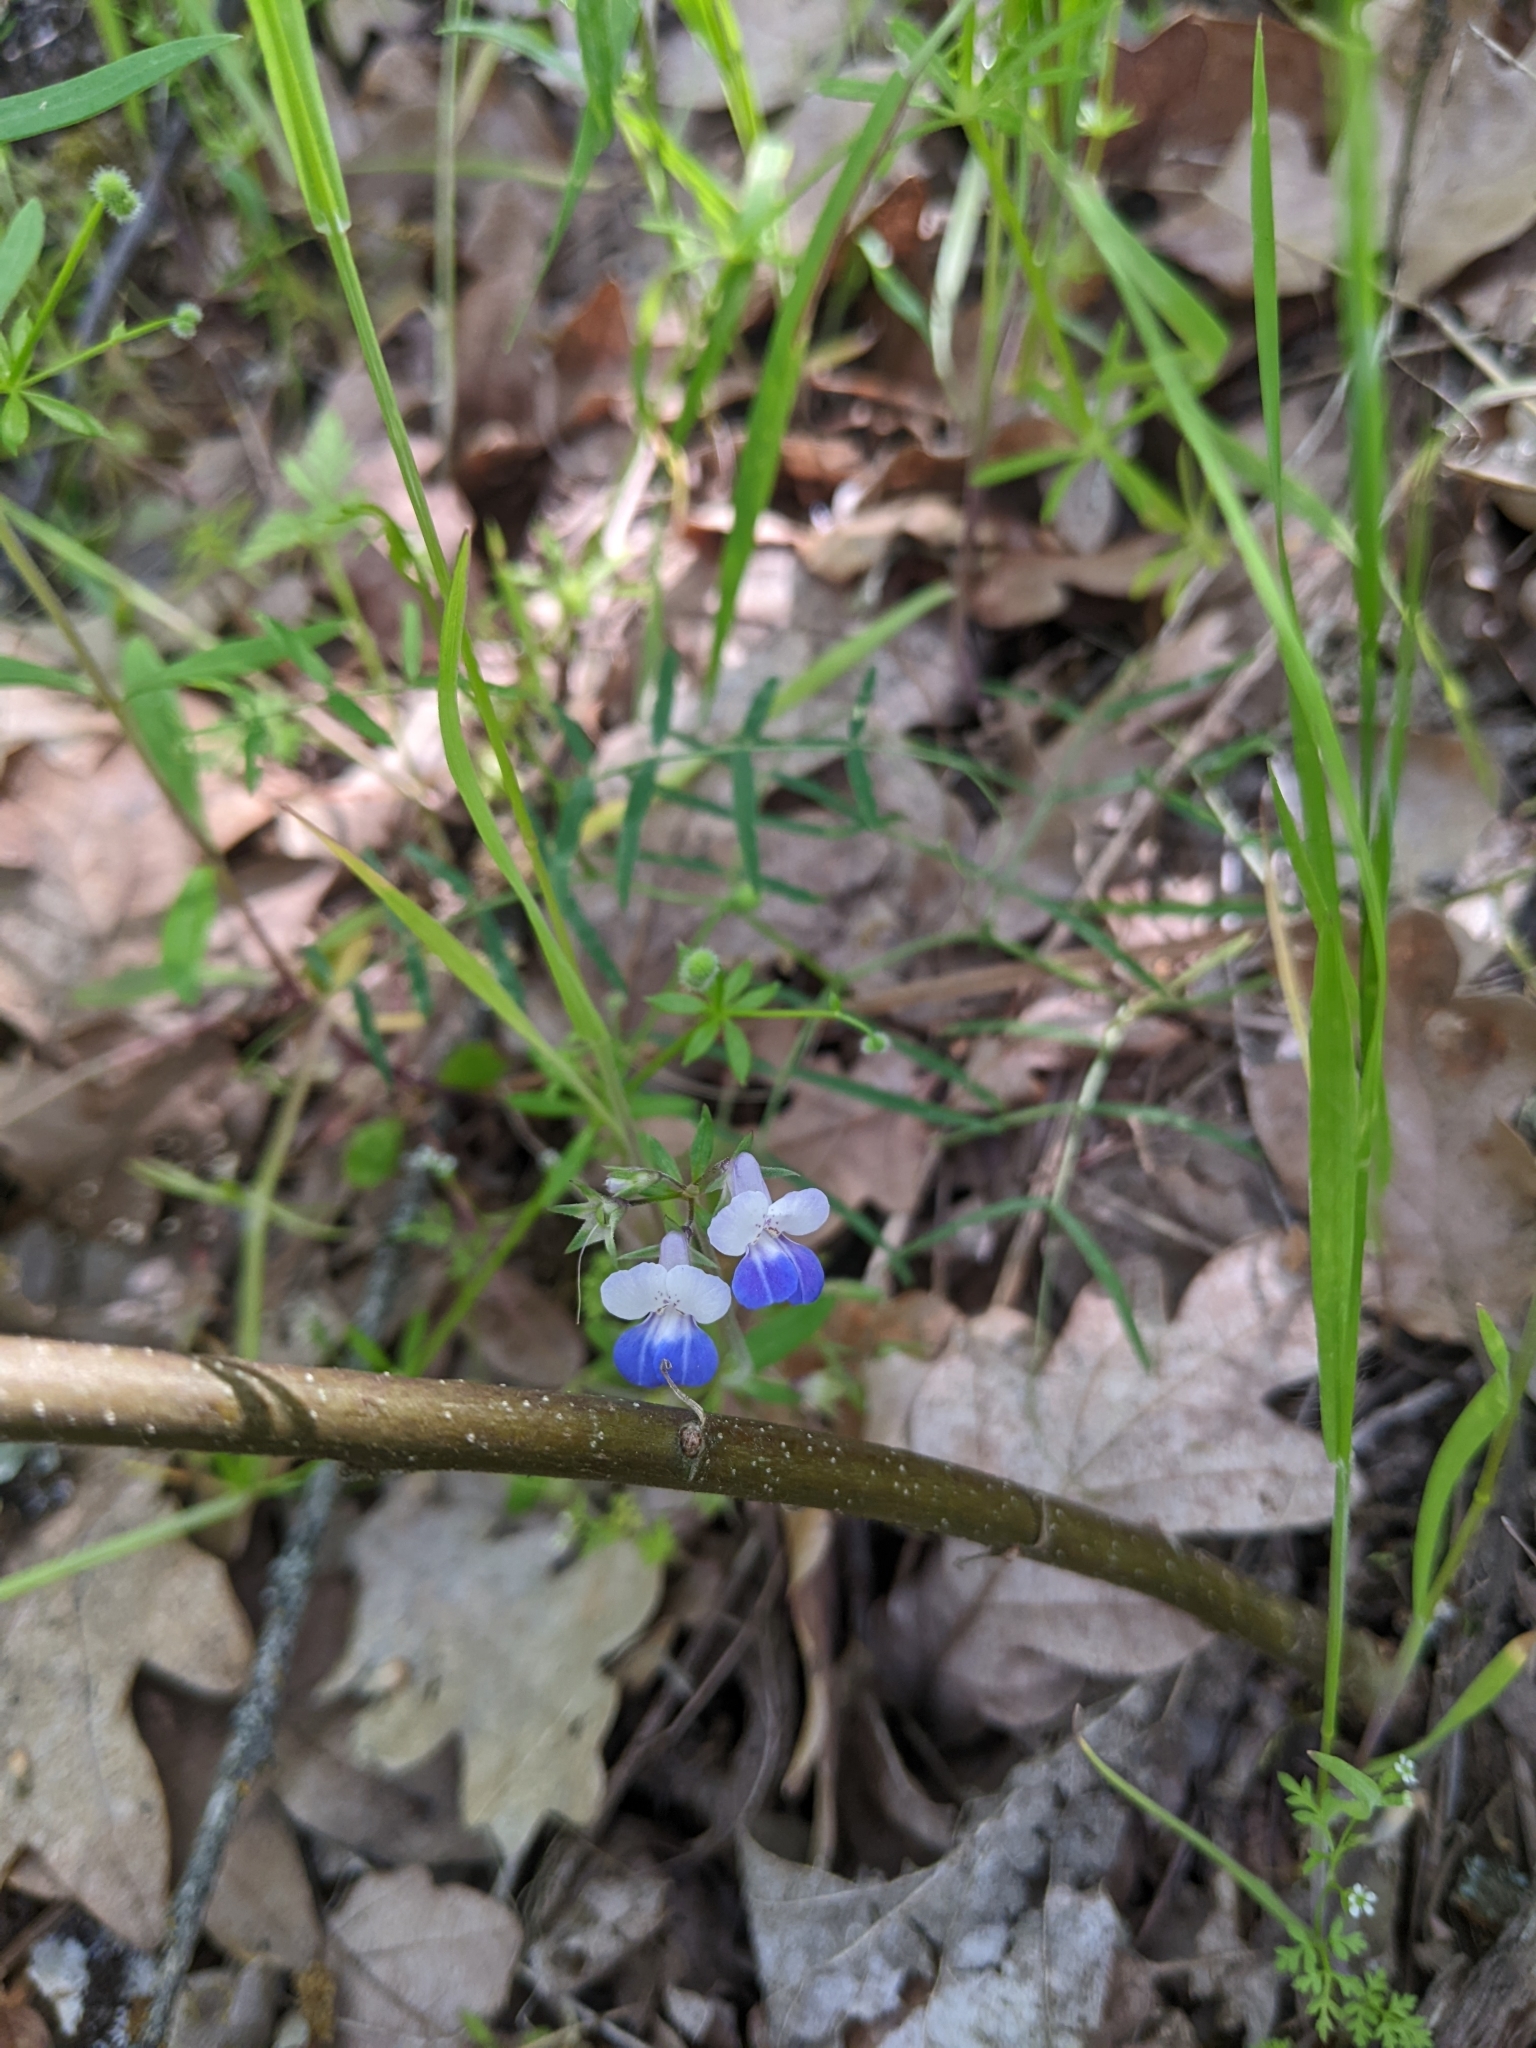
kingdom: Plantae
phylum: Tracheophyta
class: Magnoliopsida
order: Lamiales
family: Plantaginaceae
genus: Collinsia
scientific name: Collinsia grandiflora
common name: Large-flower blue-eyed-mary
